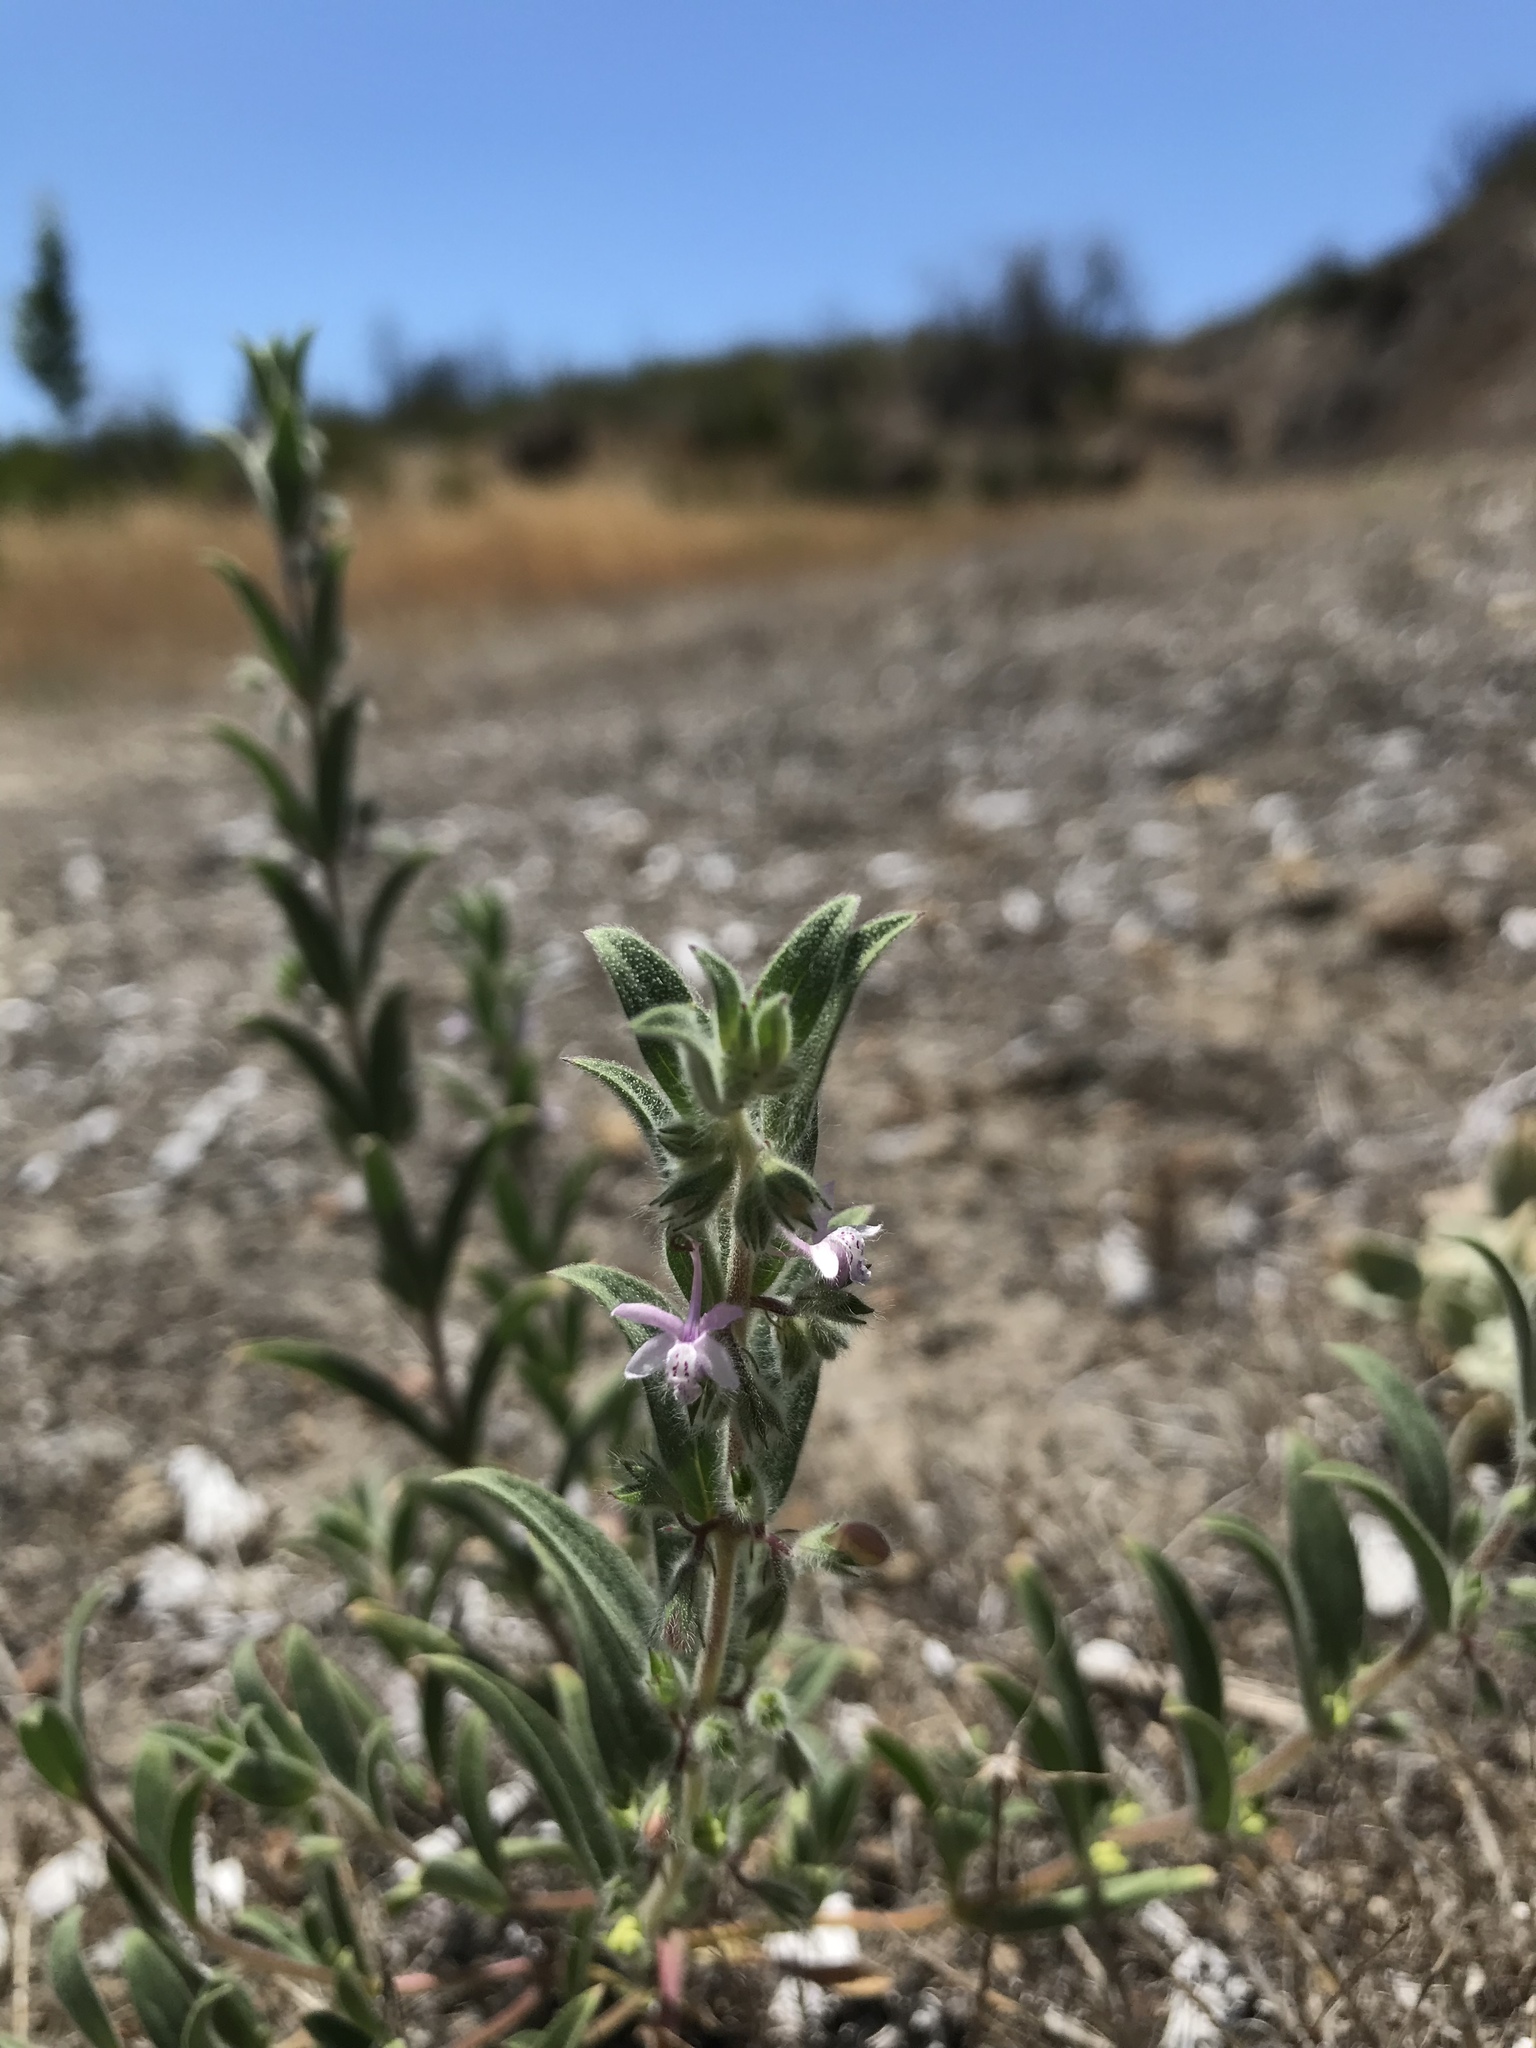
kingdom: Plantae
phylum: Tracheophyta
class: Magnoliopsida
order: Lamiales
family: Lamiaceae
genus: Trichostema
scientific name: Trichostema ruygtii
